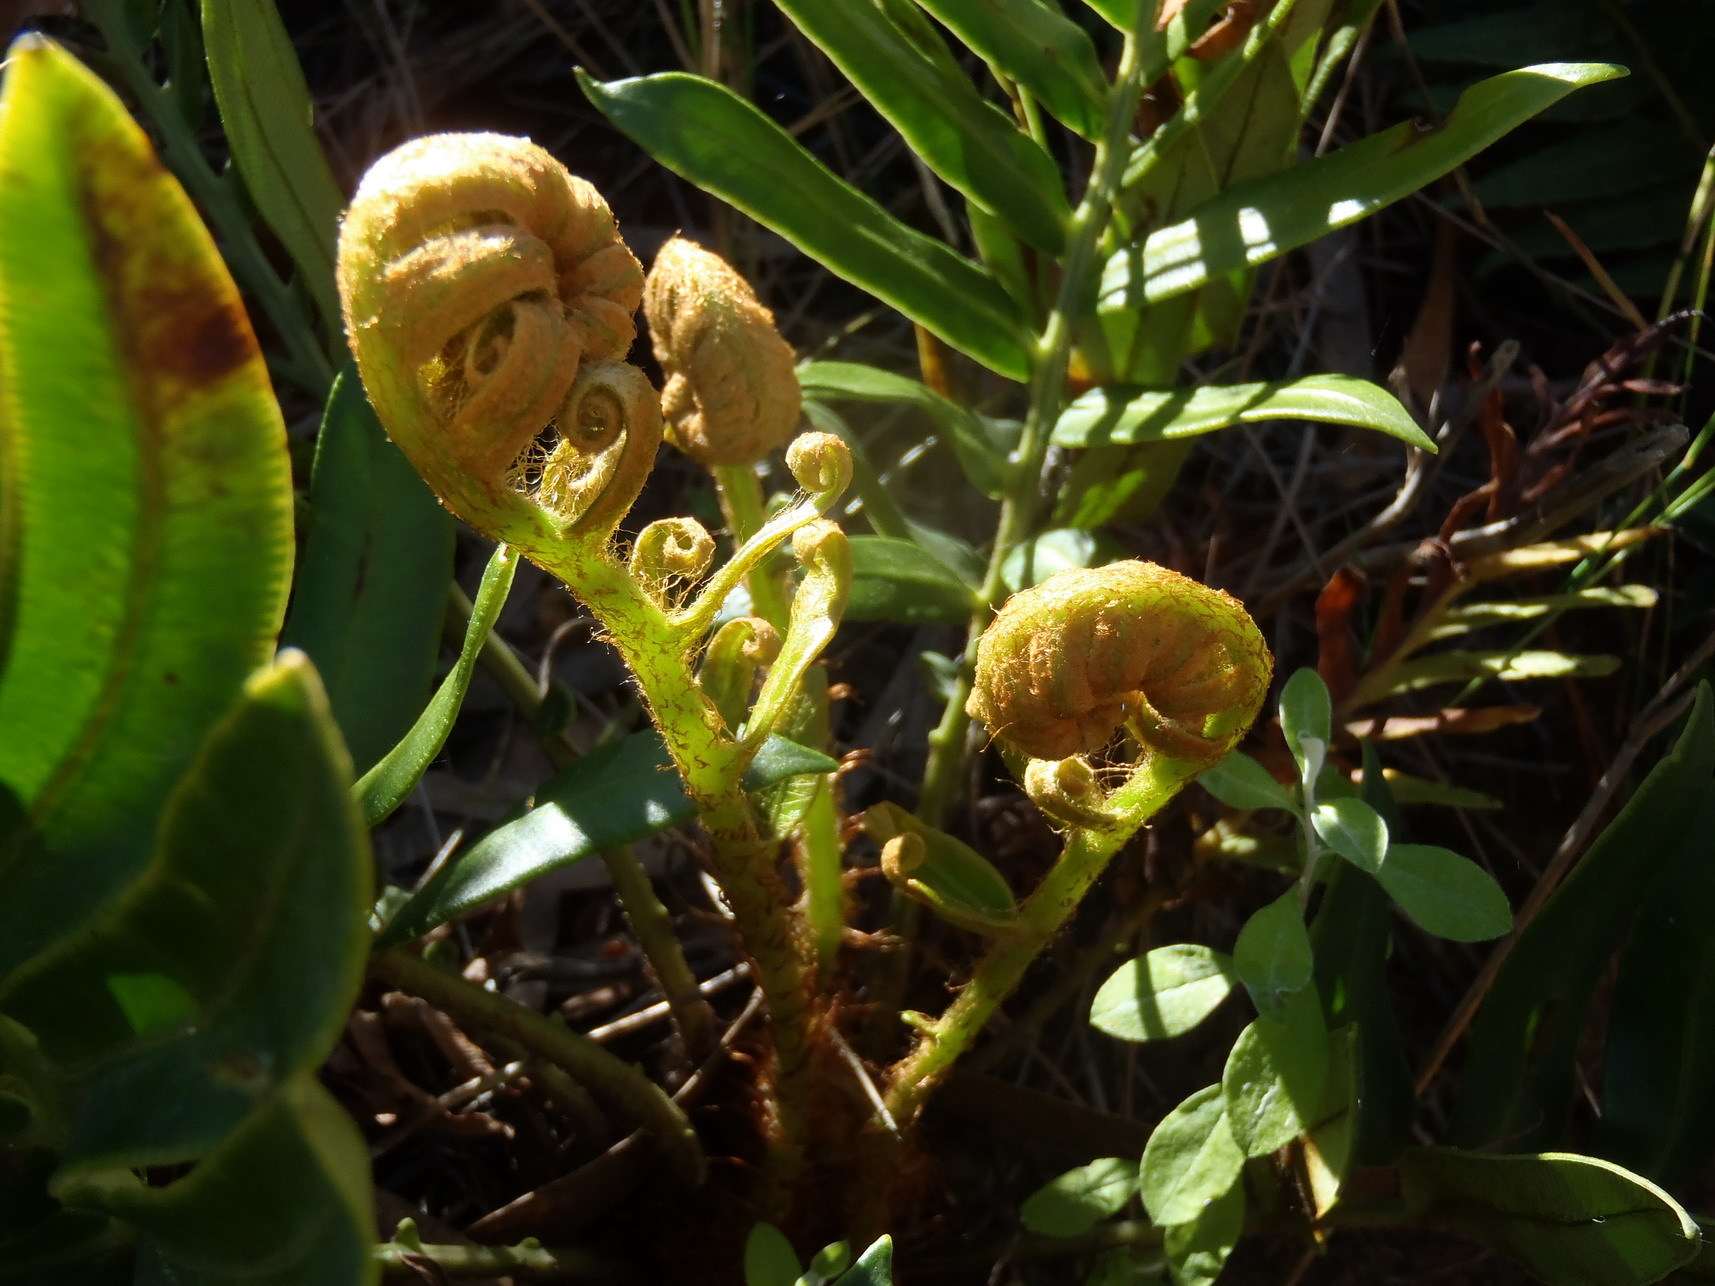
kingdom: Plantae
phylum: Tracheophyta
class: Polypodiopsida
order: Polypodiales
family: Blechnaceae
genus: Lomariocycas
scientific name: Lomariocycas tabularis
